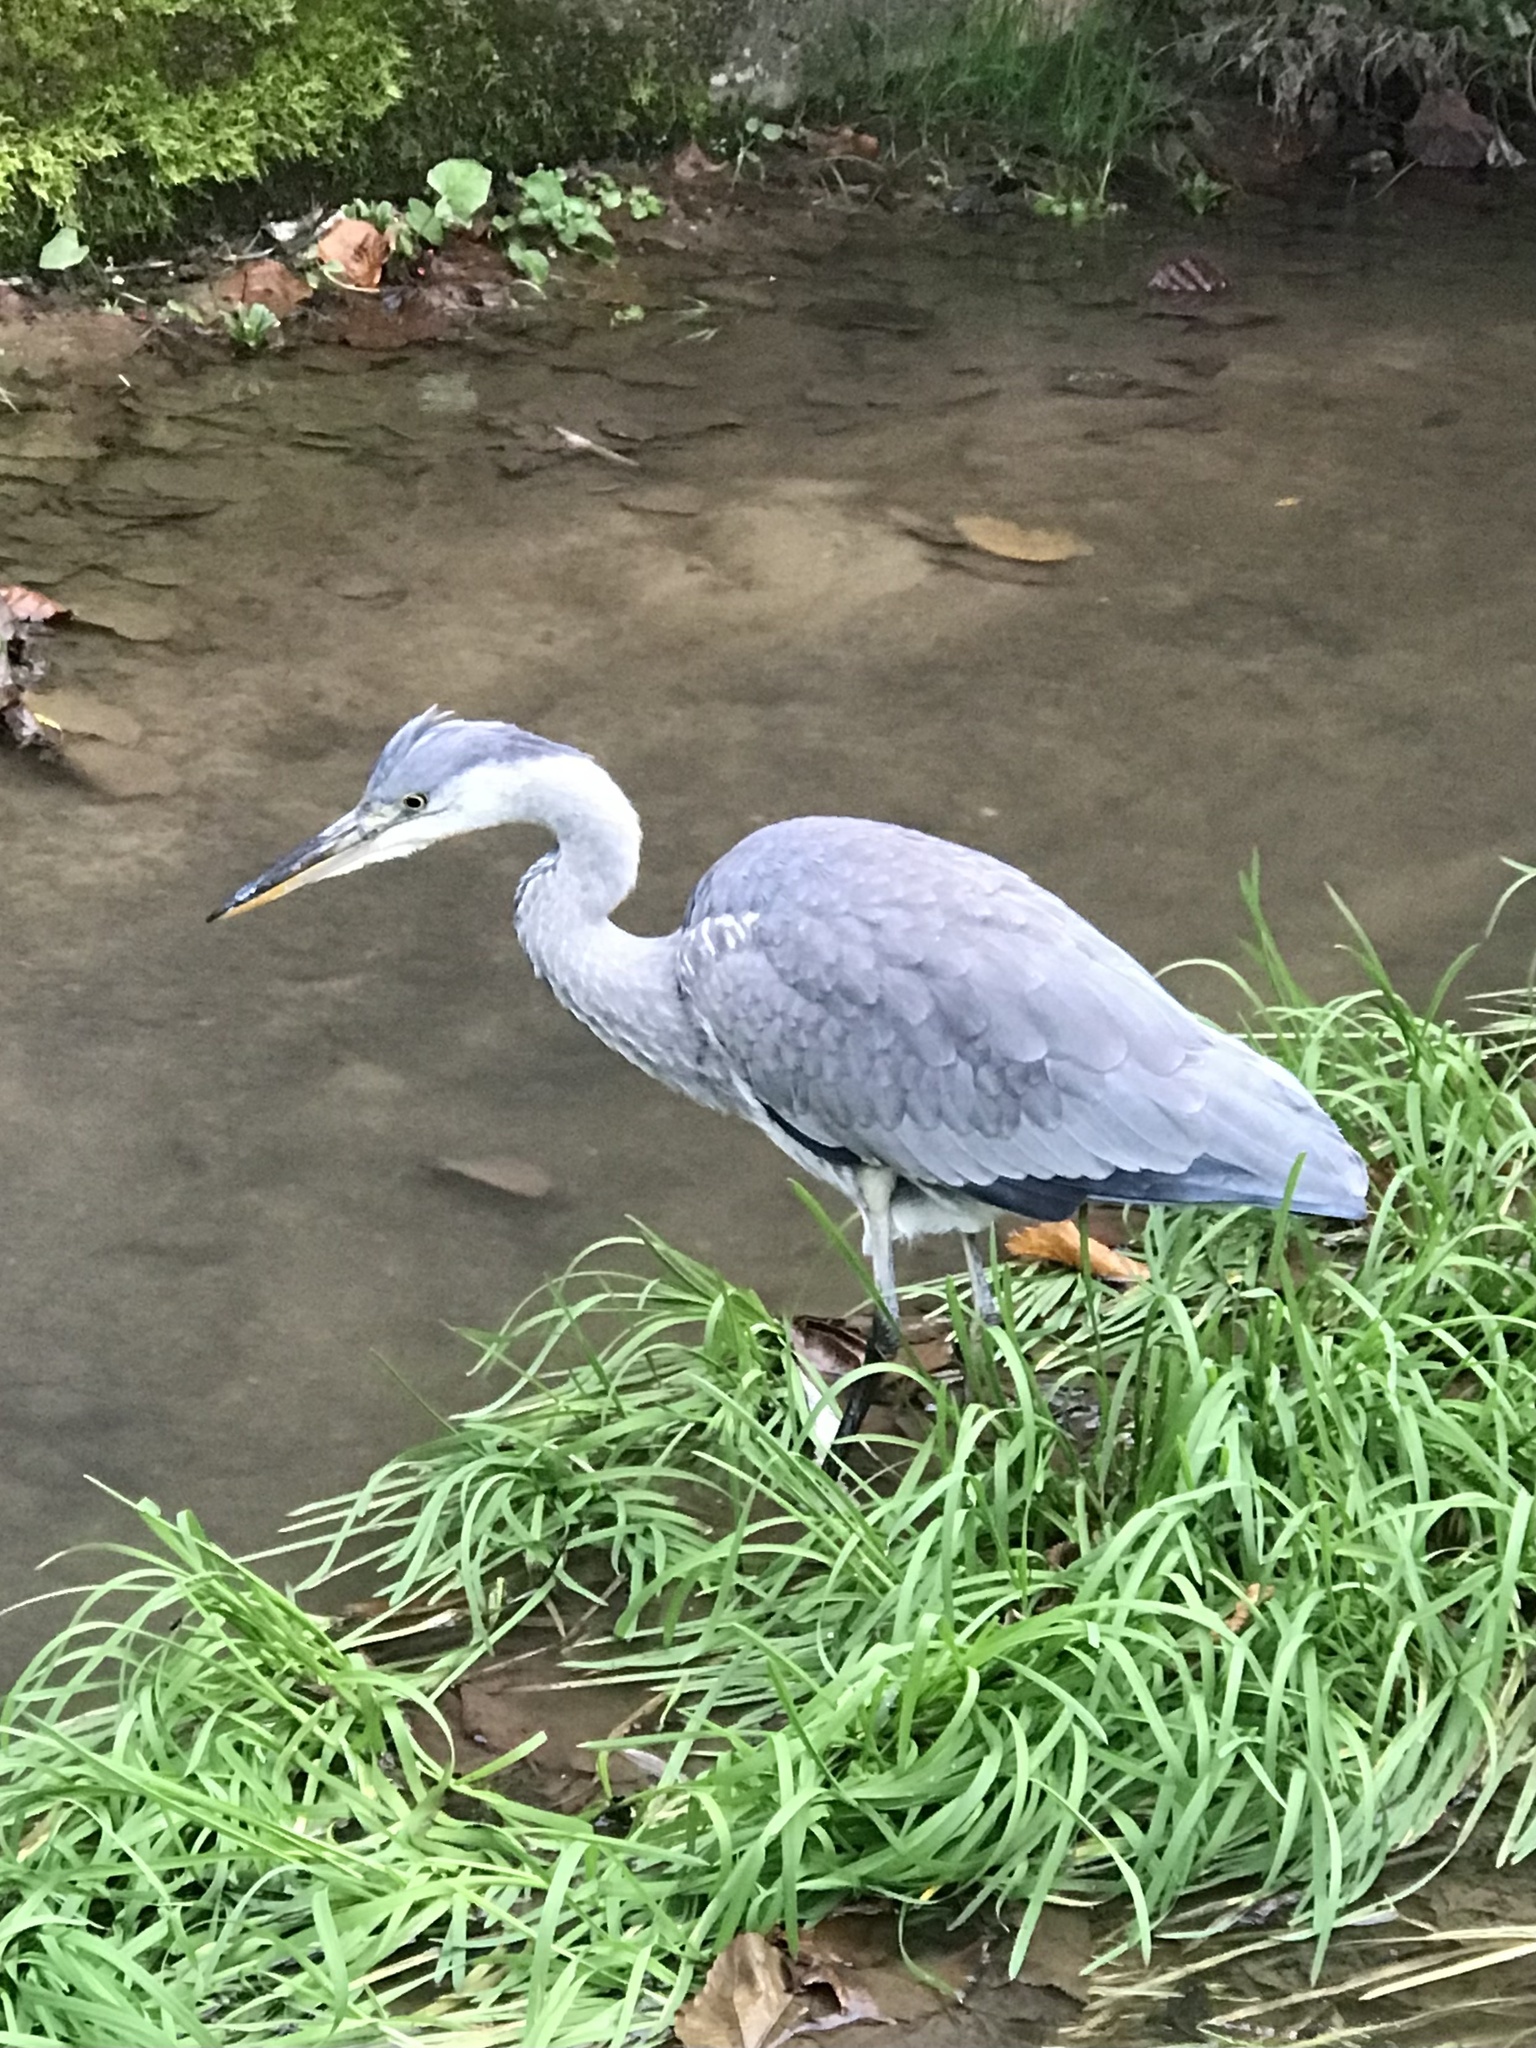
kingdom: Animalia
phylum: Chordata
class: Aves
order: Pelecaniformes
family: Ardeidae
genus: Ardea
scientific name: Ardea cinerea
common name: Grey heron
